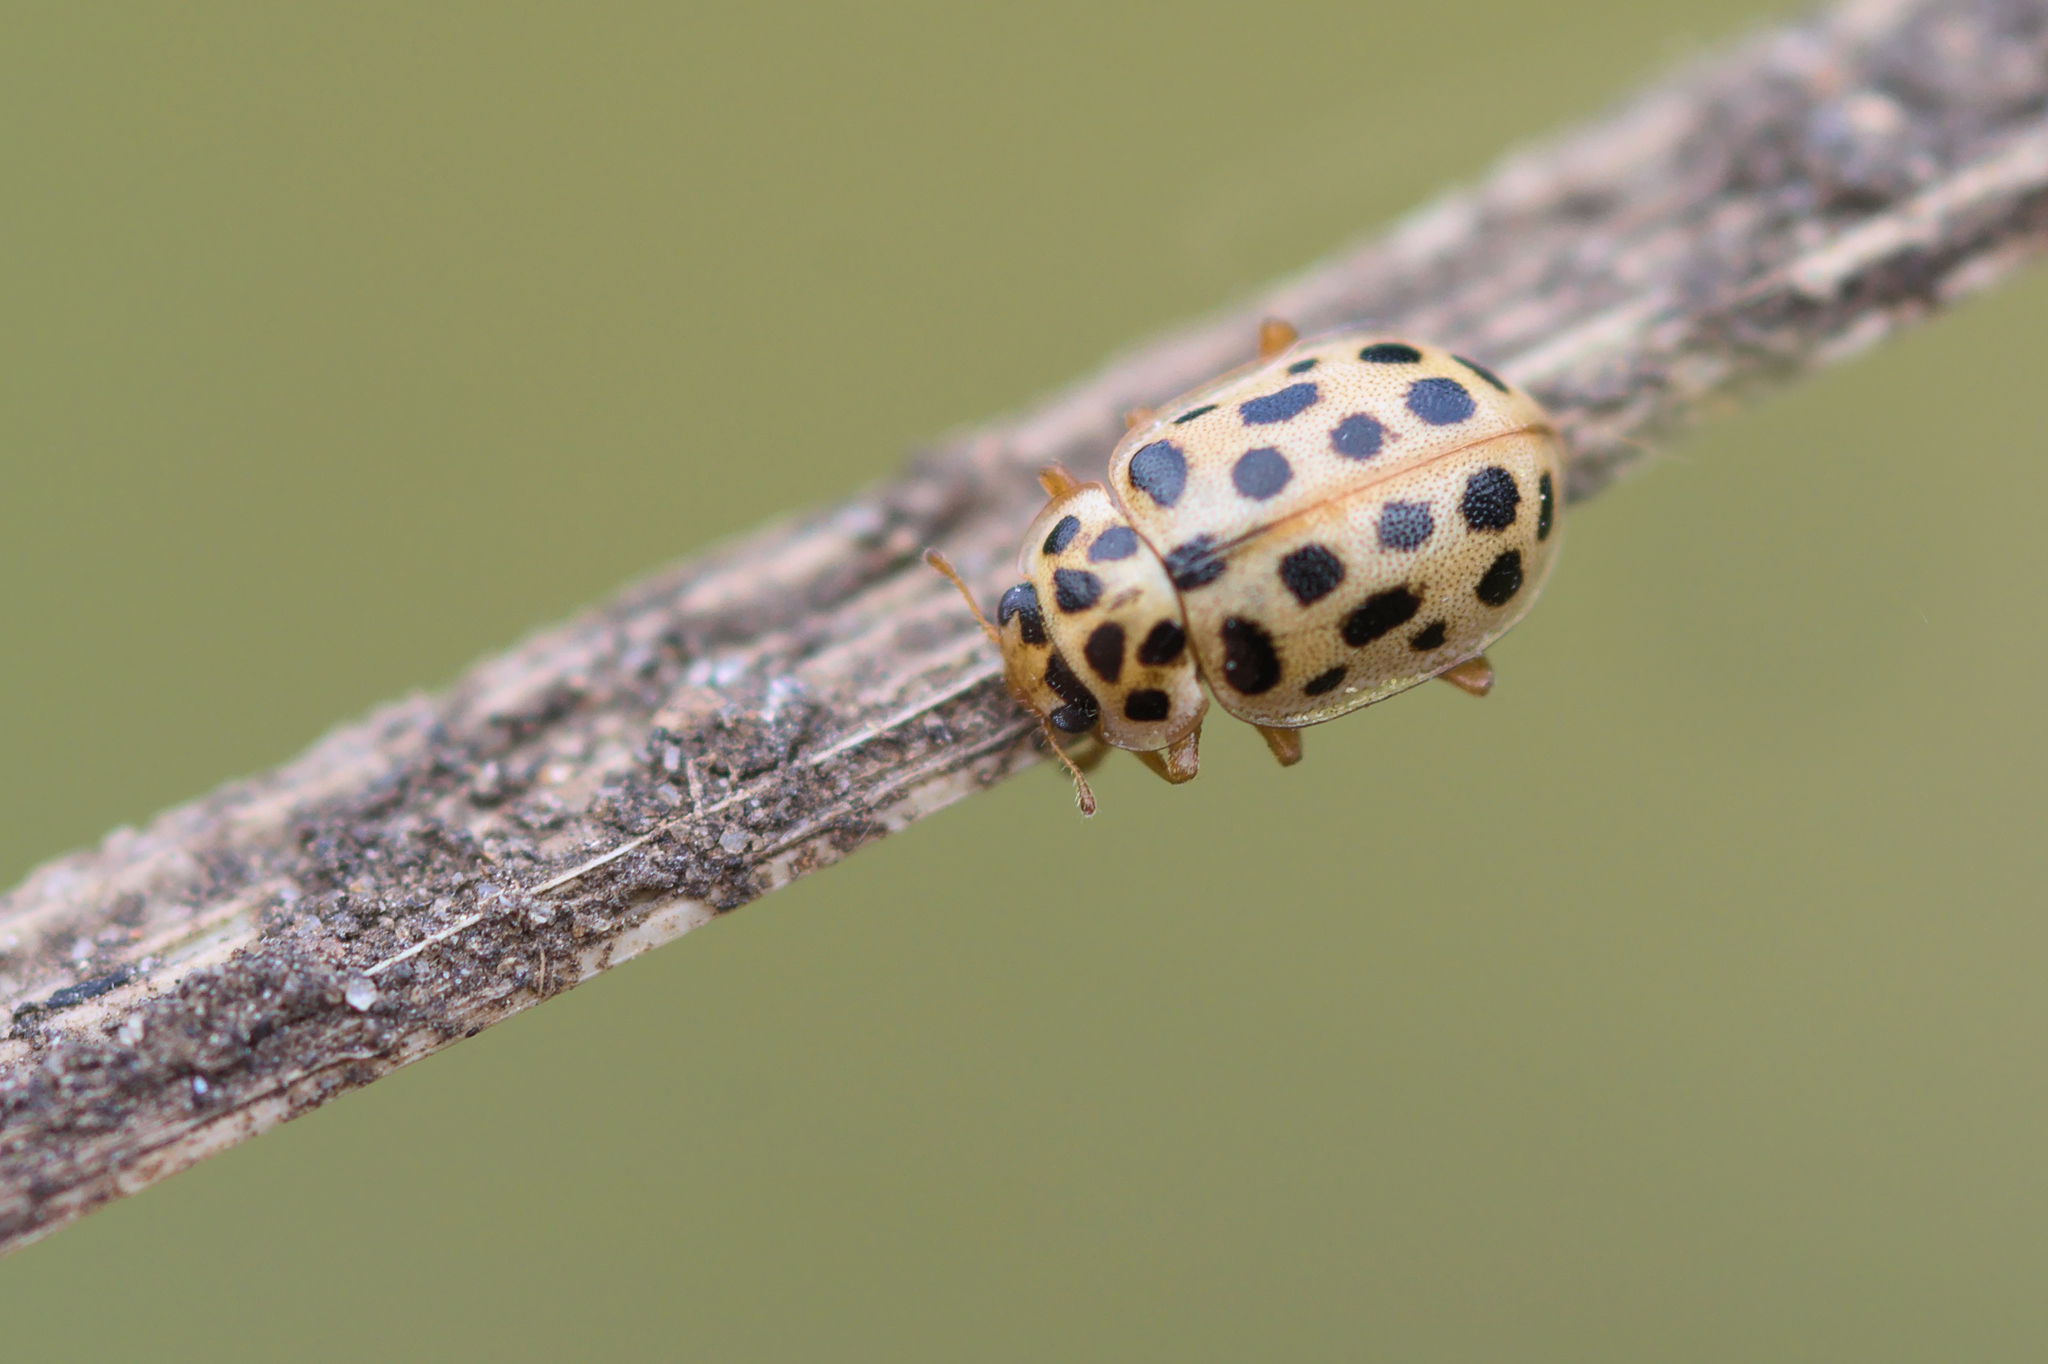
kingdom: Animalia
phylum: Arthropoda
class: Insecta
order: Coleoptera
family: Coccinellidae
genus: Anisosticta
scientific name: Anisosticta novemdecimpunctata
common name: Water ladybird
